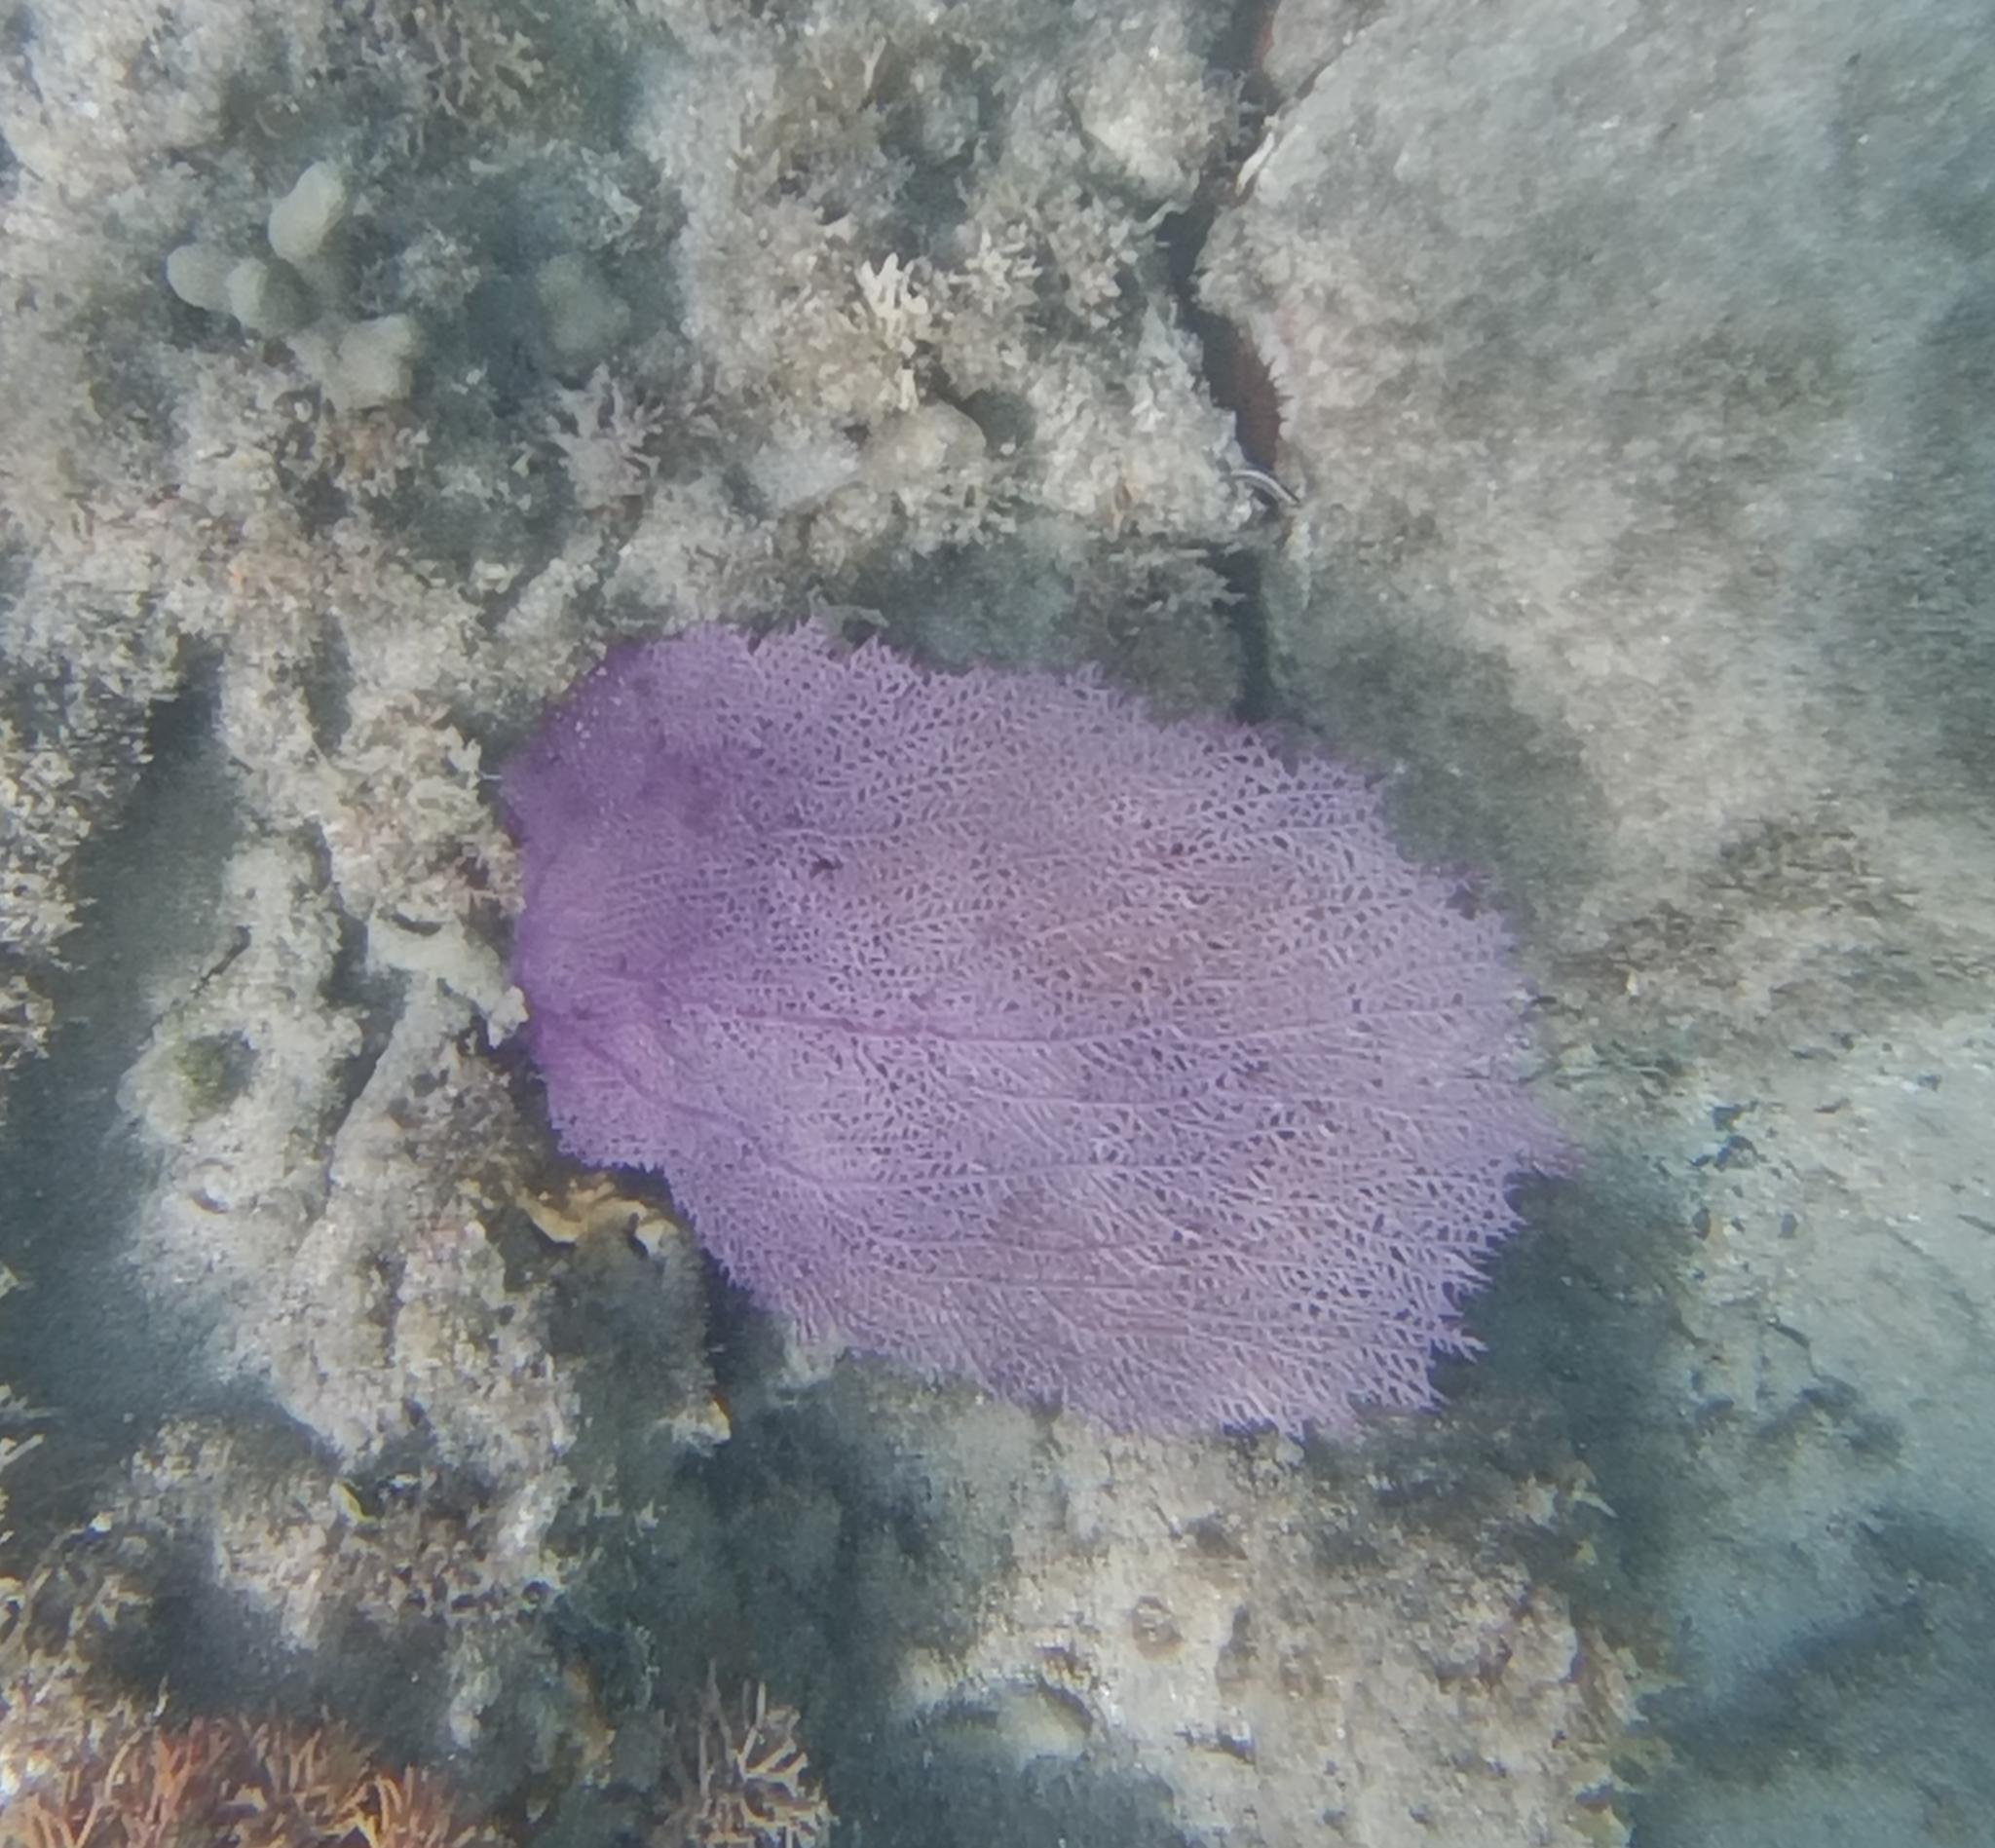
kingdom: Animalia
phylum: Cnidaria
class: Anthozoa
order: Malacalcyonacea
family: Gorgoniidae
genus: Gorgonia
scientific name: Gorgonia ventalina
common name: Common sea fan
